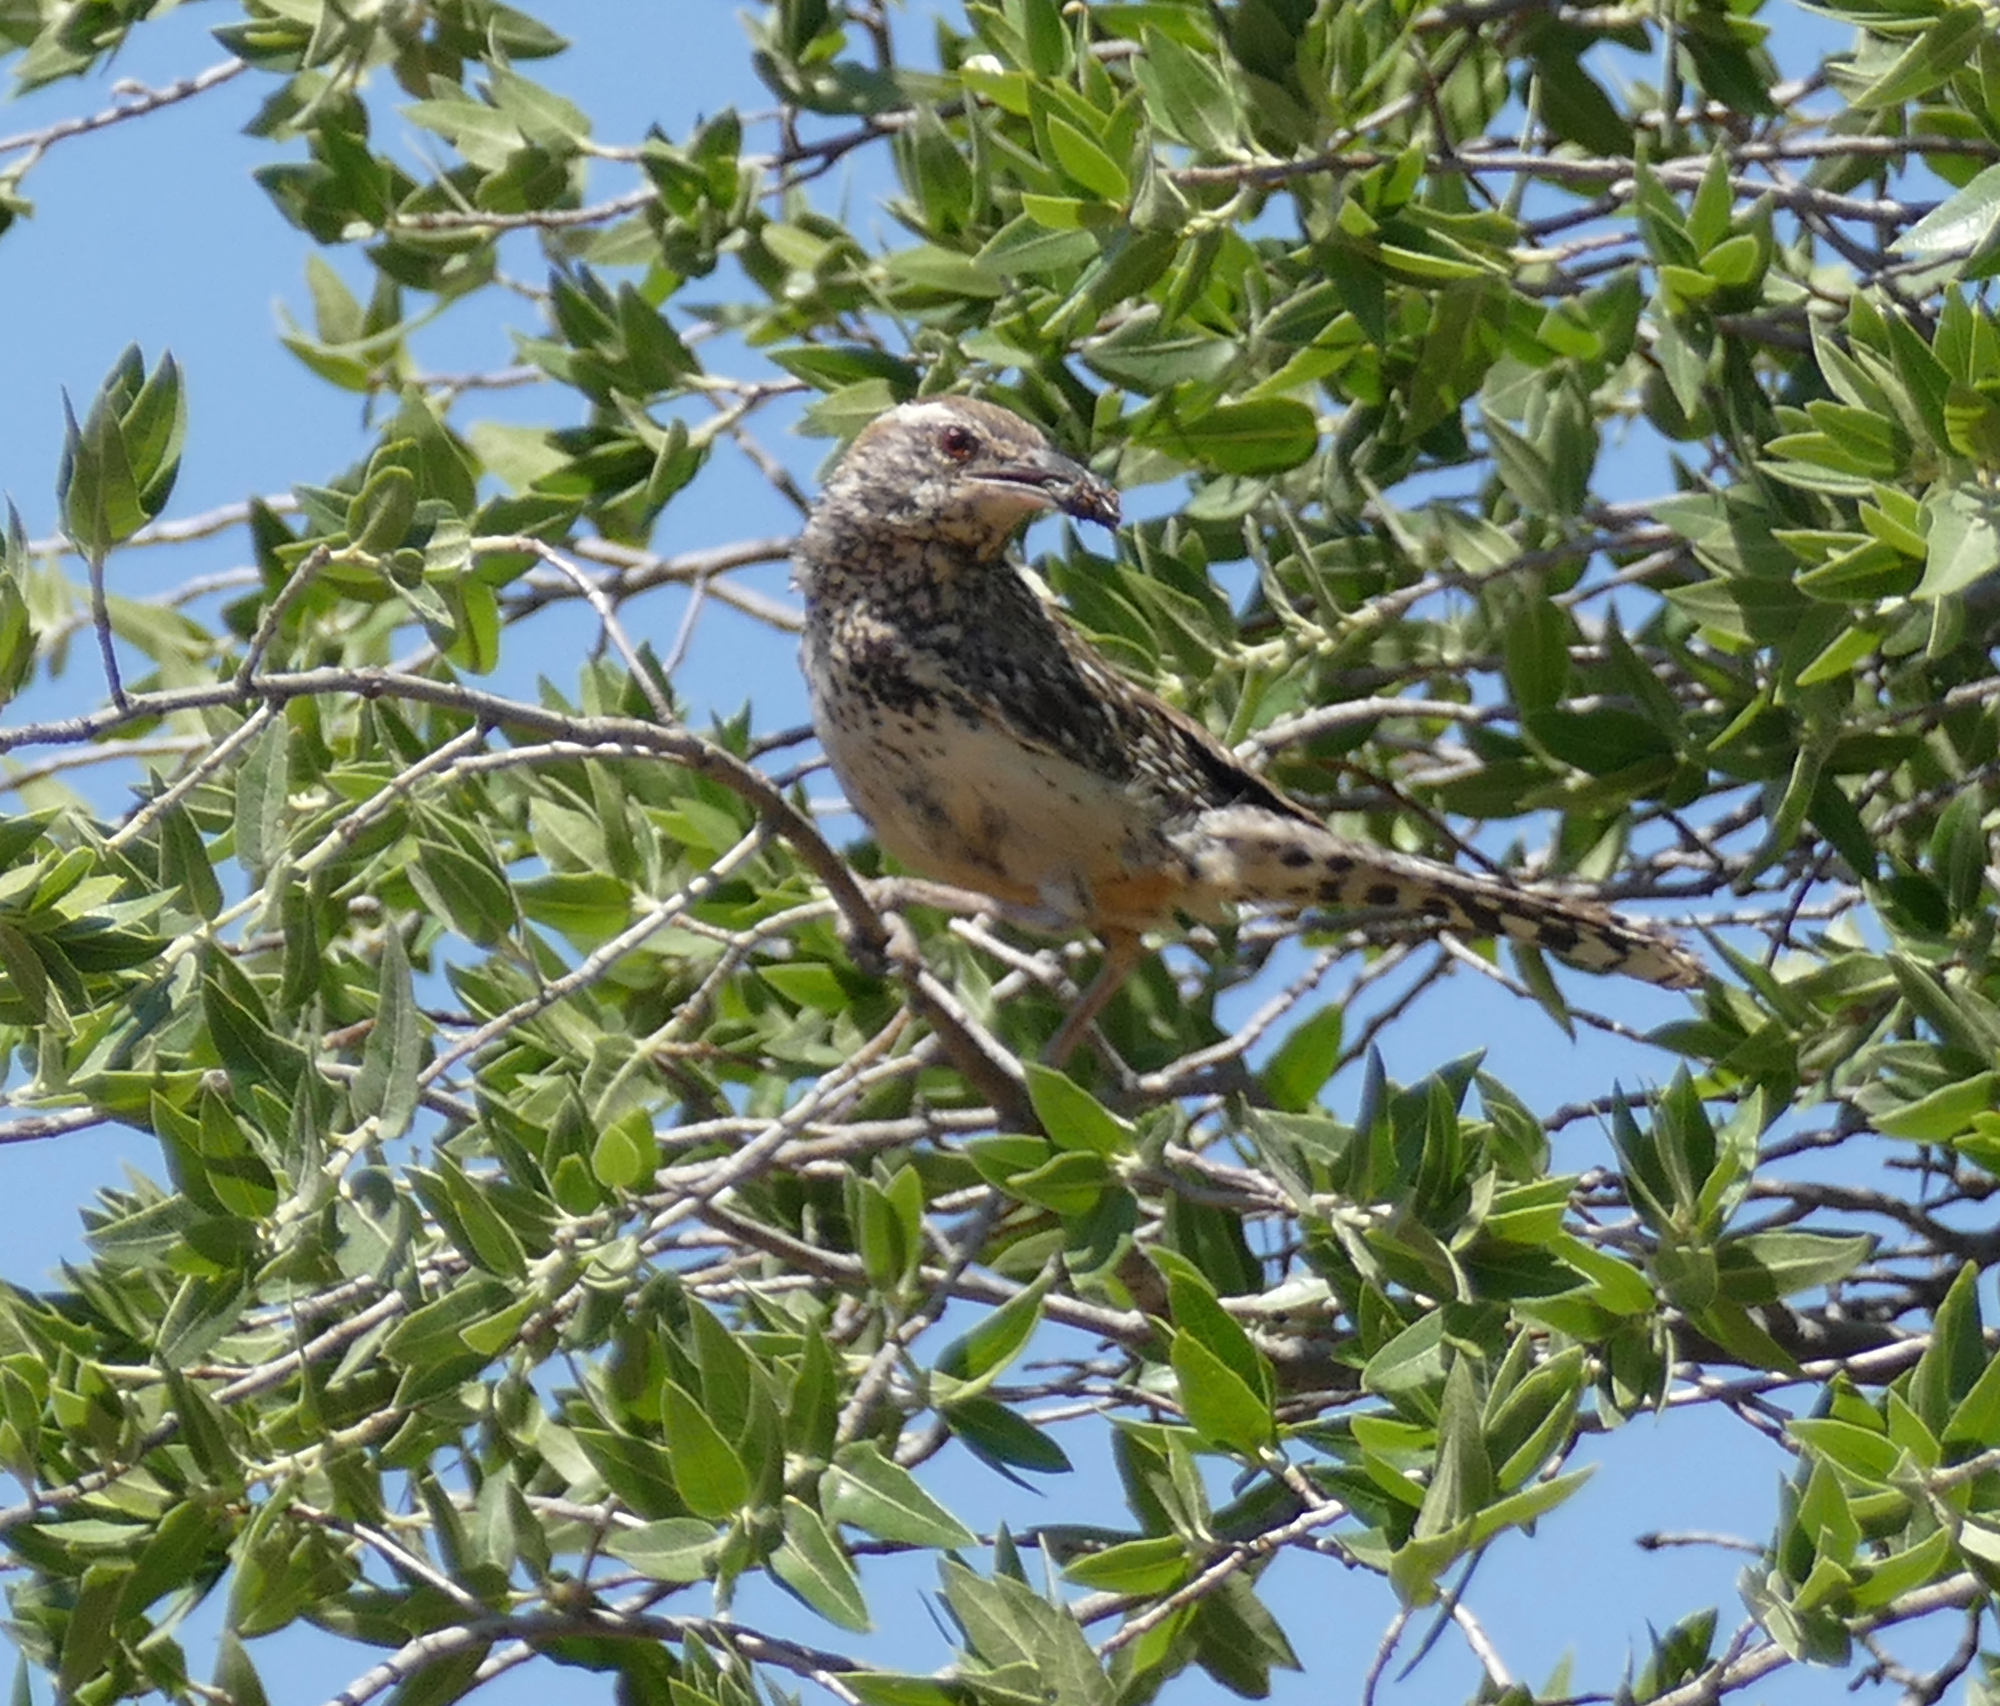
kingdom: Animalia
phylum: Chordata
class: Aves
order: Passeriformes
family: Troglodytidae
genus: Campylorhynchus
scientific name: Campylorhynchus brunneicapillus
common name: Cactus wren
